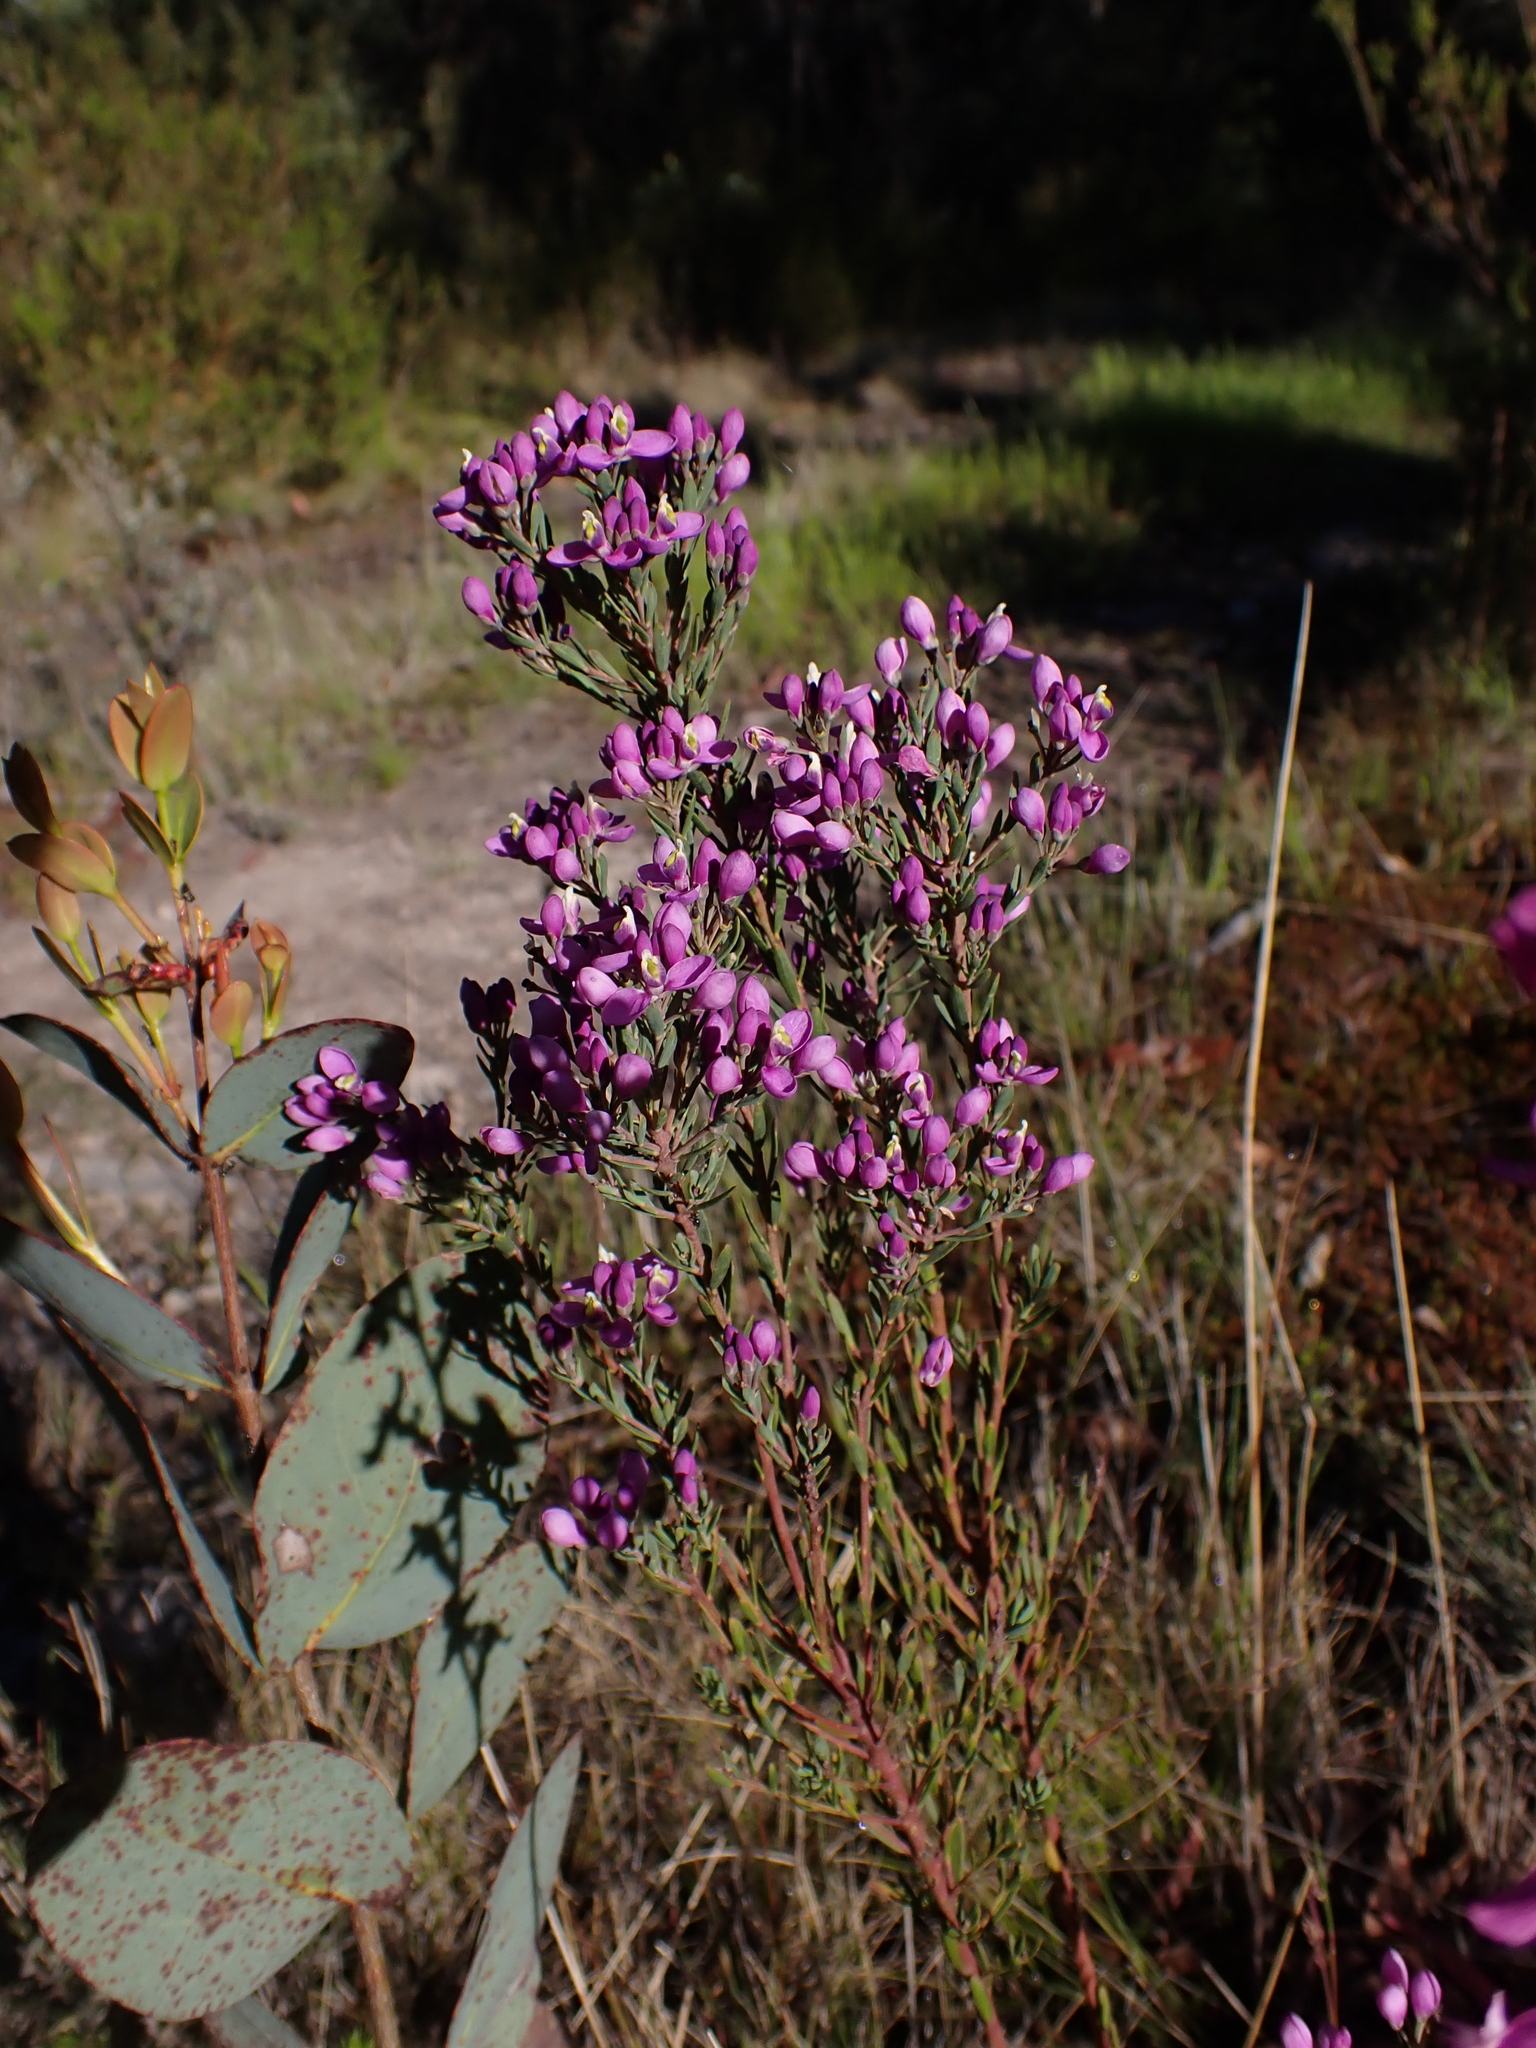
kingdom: Plantae
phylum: Tracheophyta
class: Magnoliopsida
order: Fabales
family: Polygalaceae
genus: Comesperma
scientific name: Comesperma retusum
